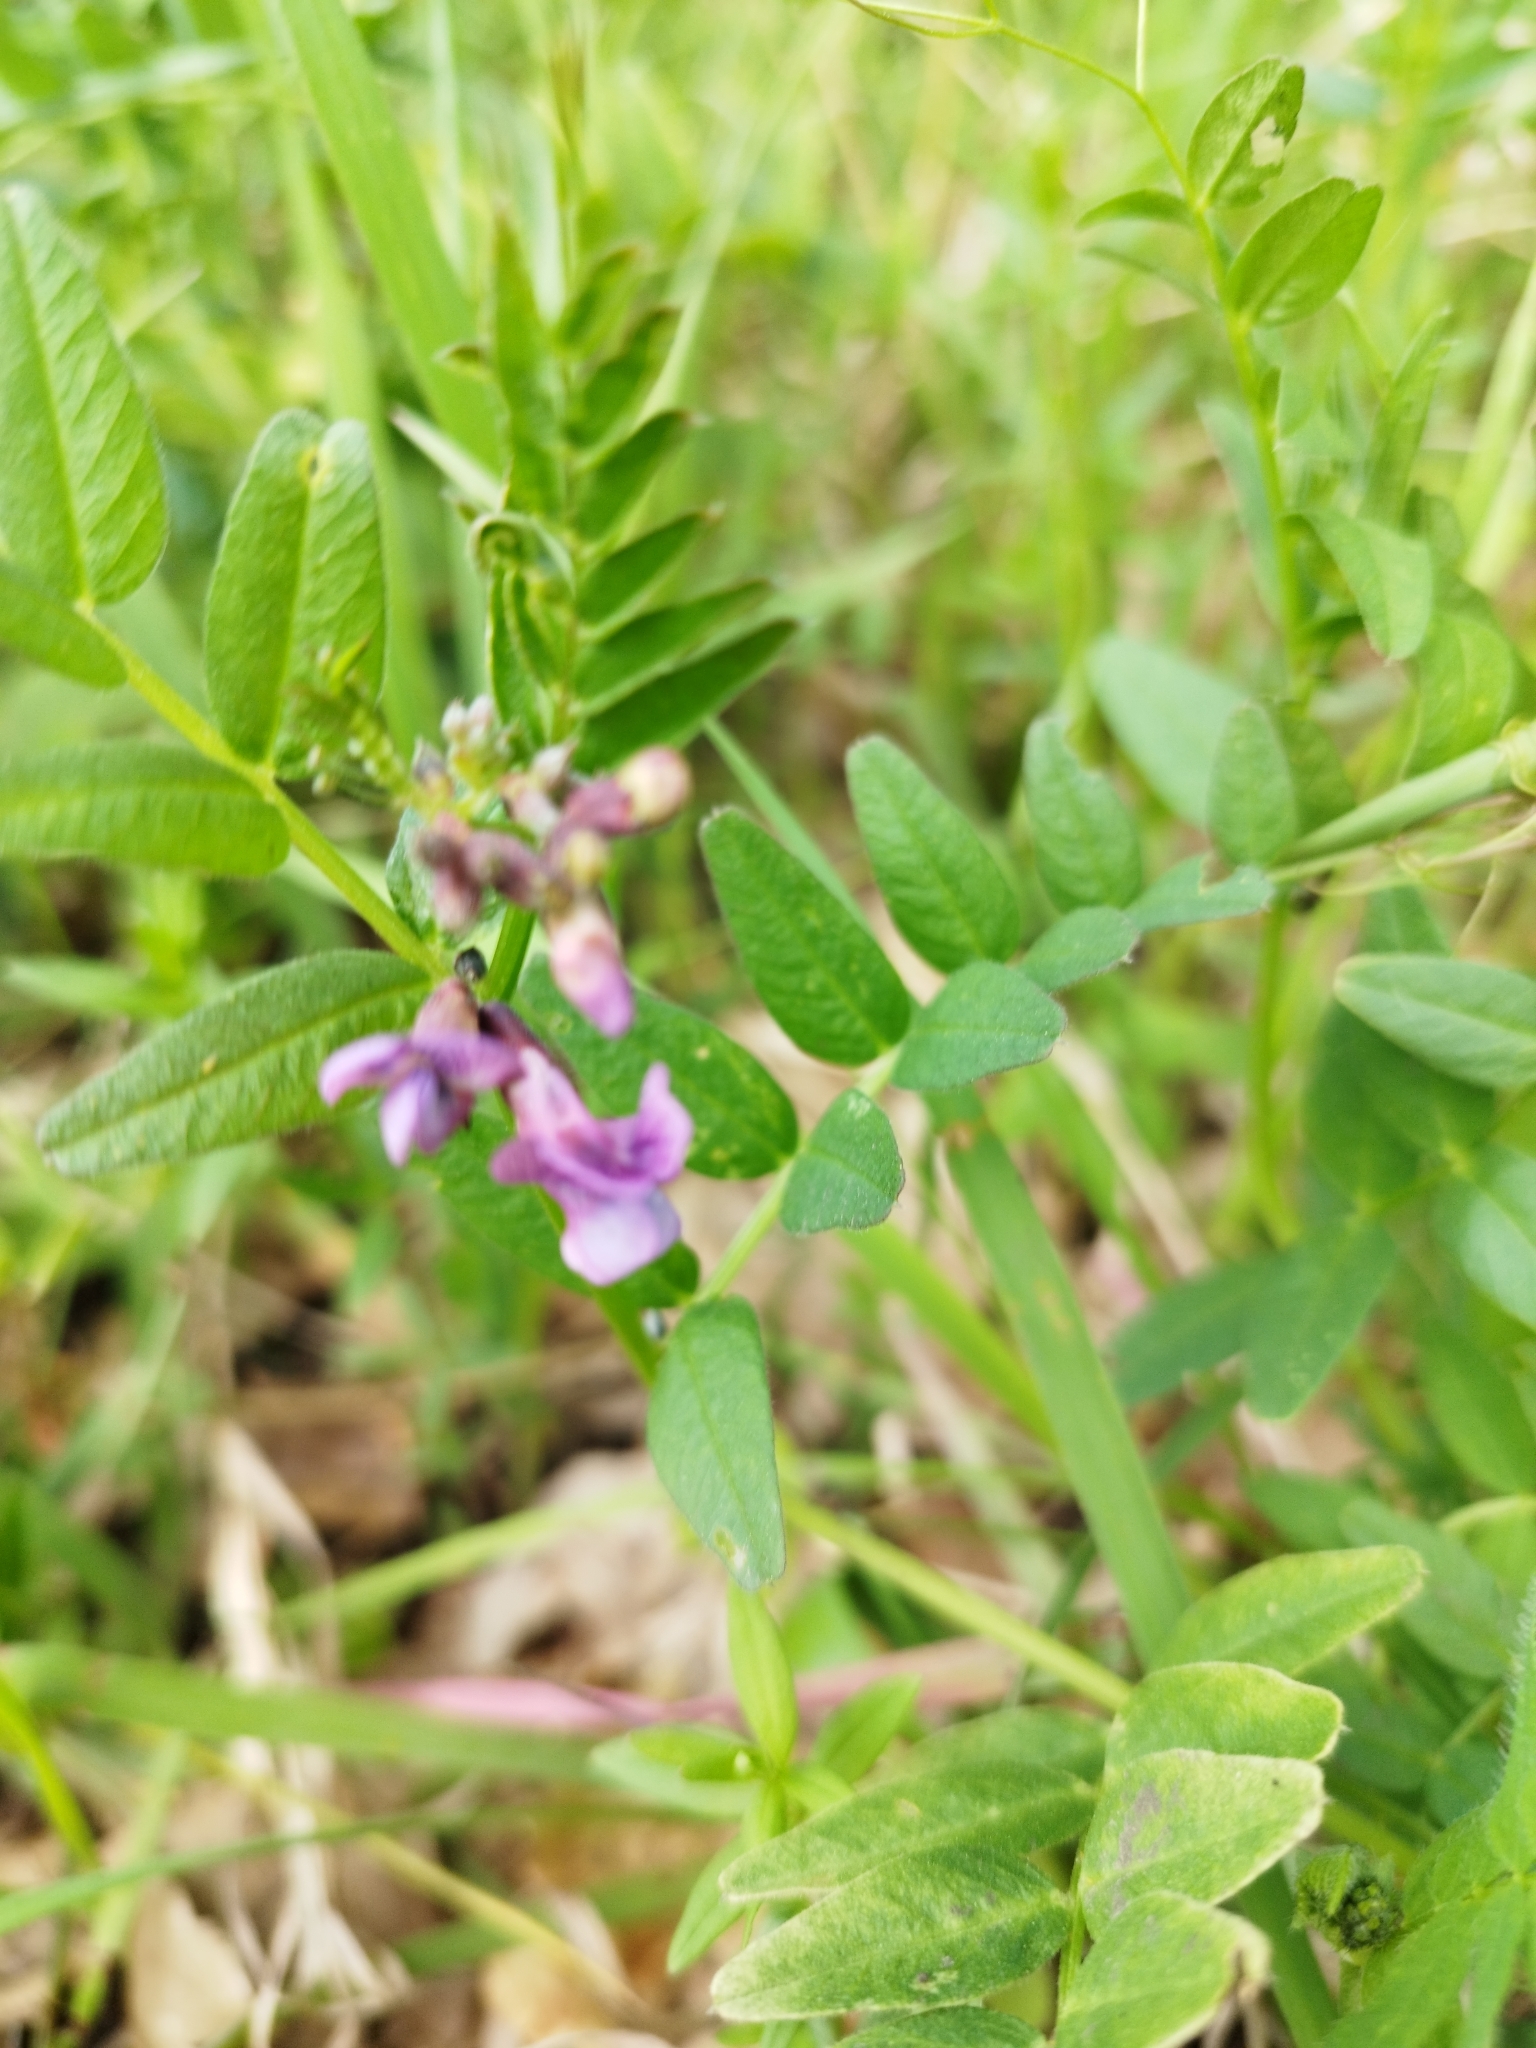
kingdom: Plantae
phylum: Tracheophyta
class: Magnoliopsida
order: Fabales
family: Fabaceae
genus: Vicia
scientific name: Vicia sepium
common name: Bush vetch
